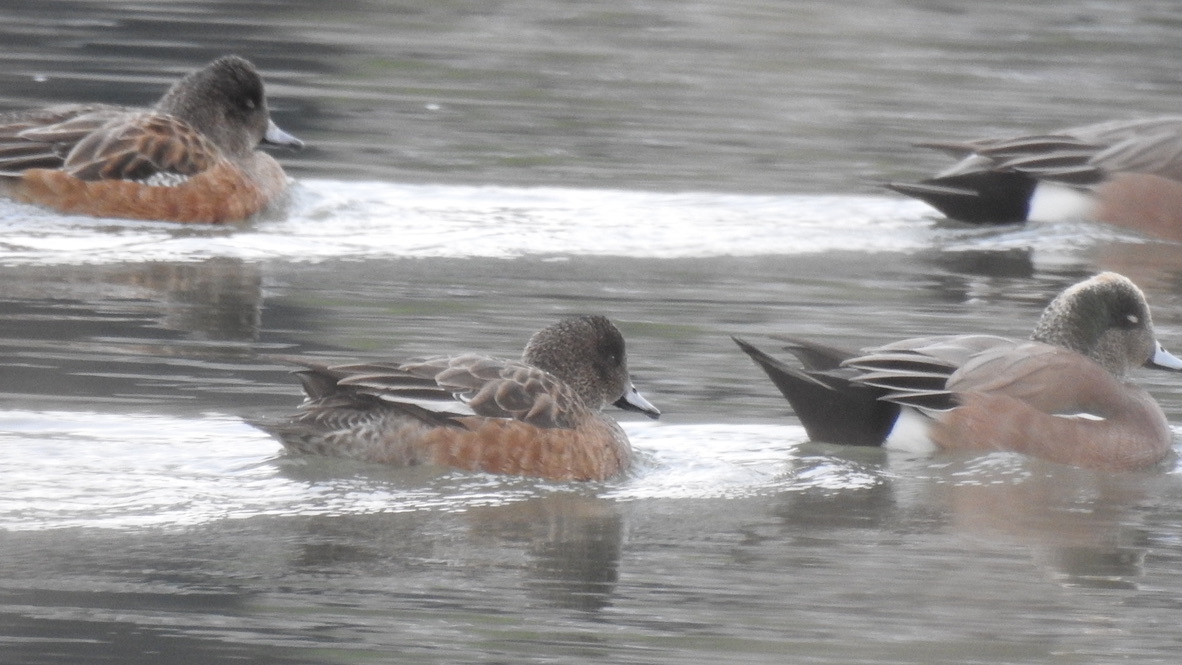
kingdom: Animalia
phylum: Chordata
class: Aves
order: Anseriformes
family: Anatidae
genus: Mareca
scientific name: Mareca americana
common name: American wigeon
